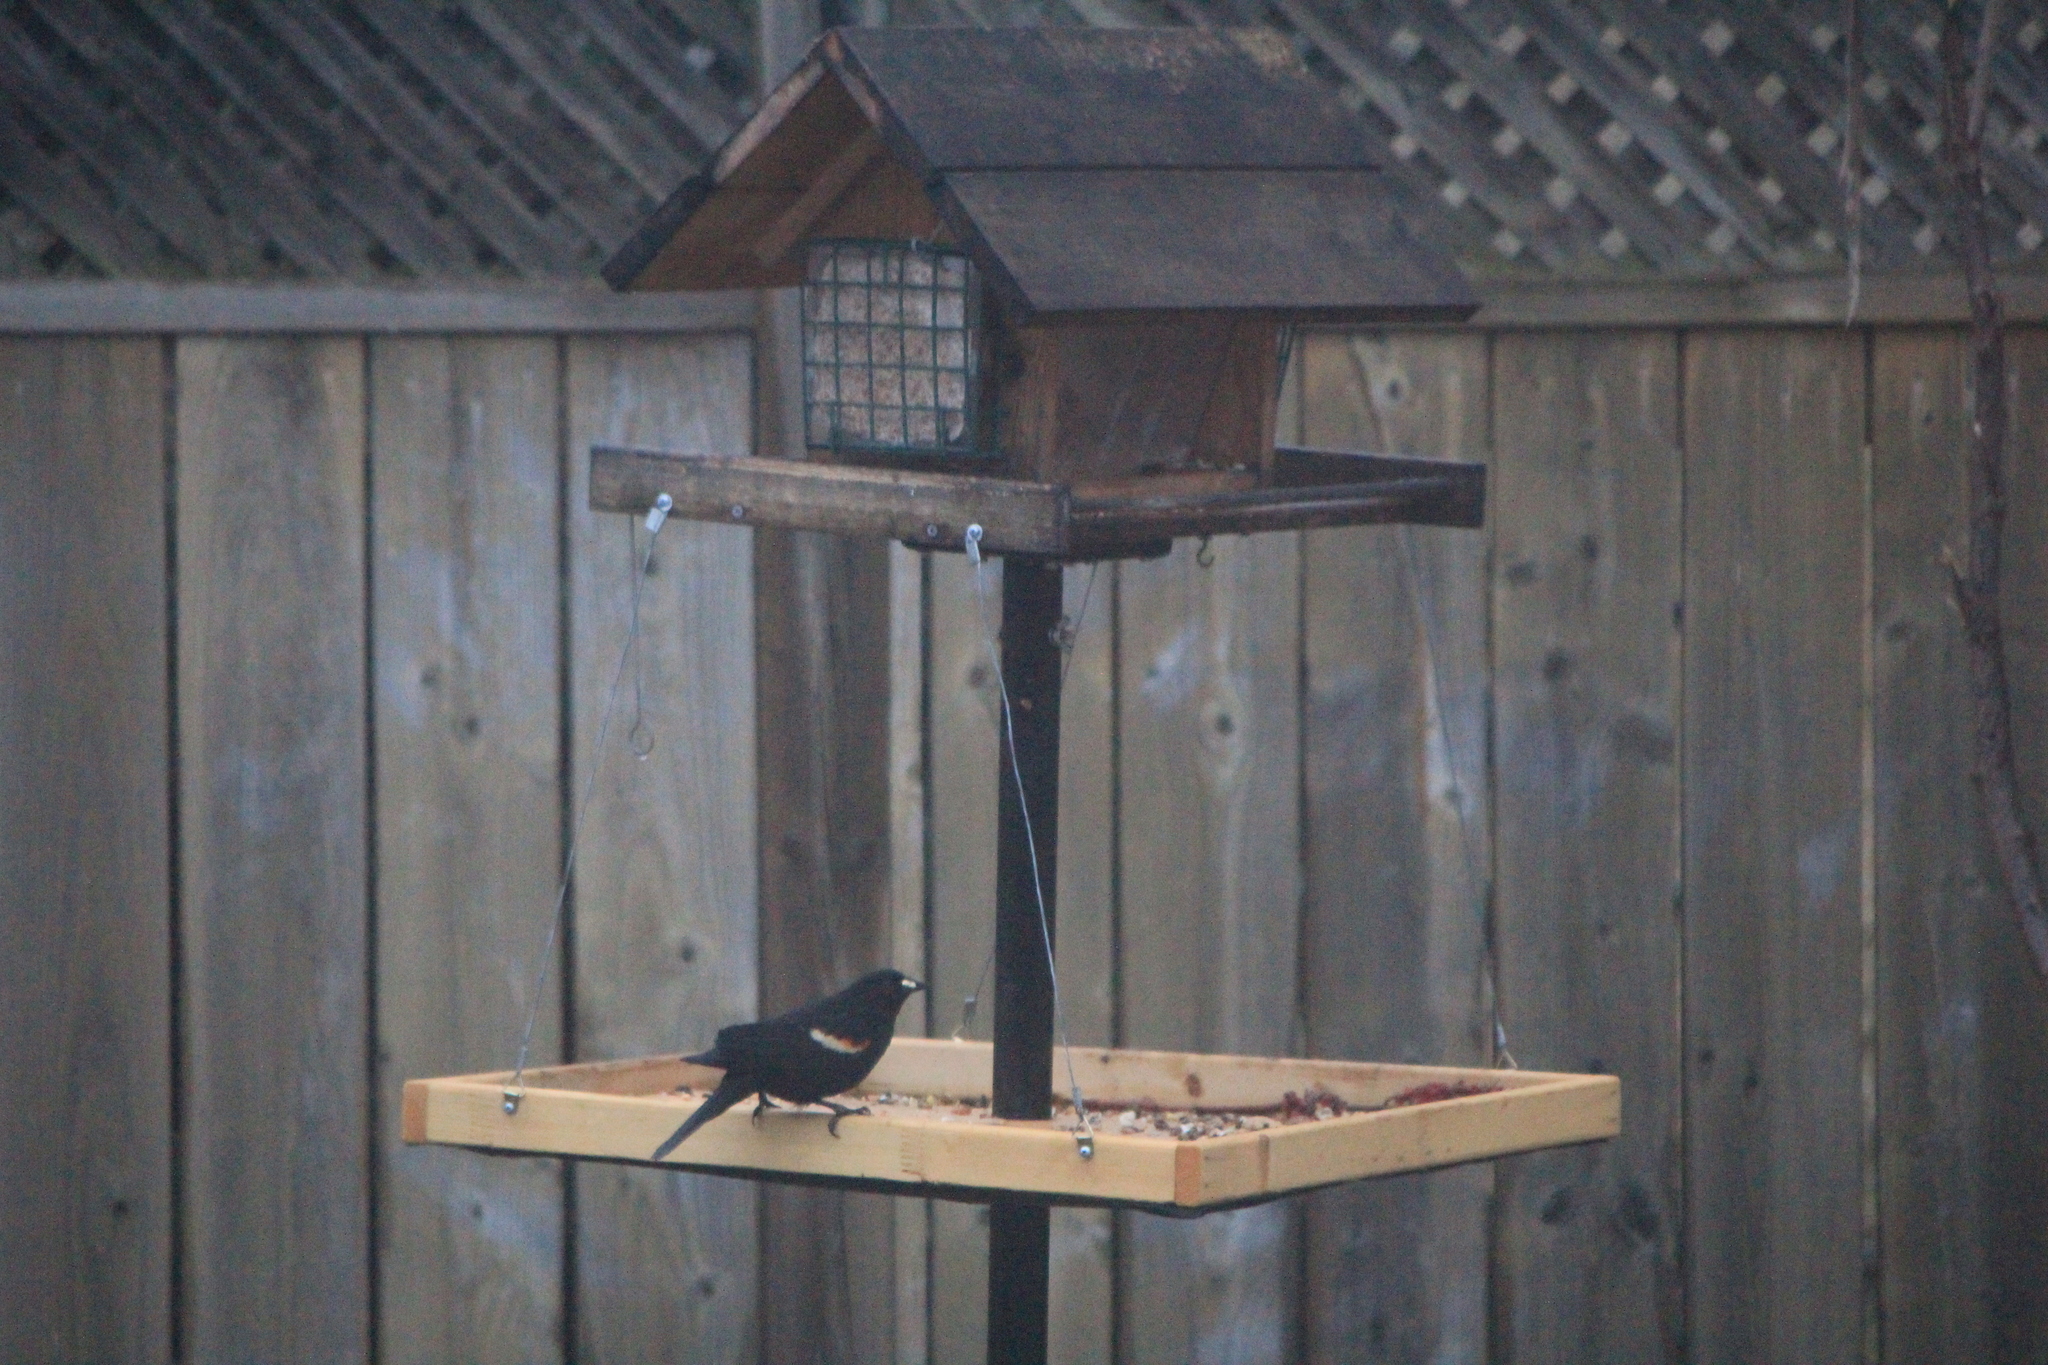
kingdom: Animalia
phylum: Chordata
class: Aves
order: Passeriformes
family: Icteridae
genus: Agelaius
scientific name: Agelaius phoeniceus
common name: Red-winged blackbird
